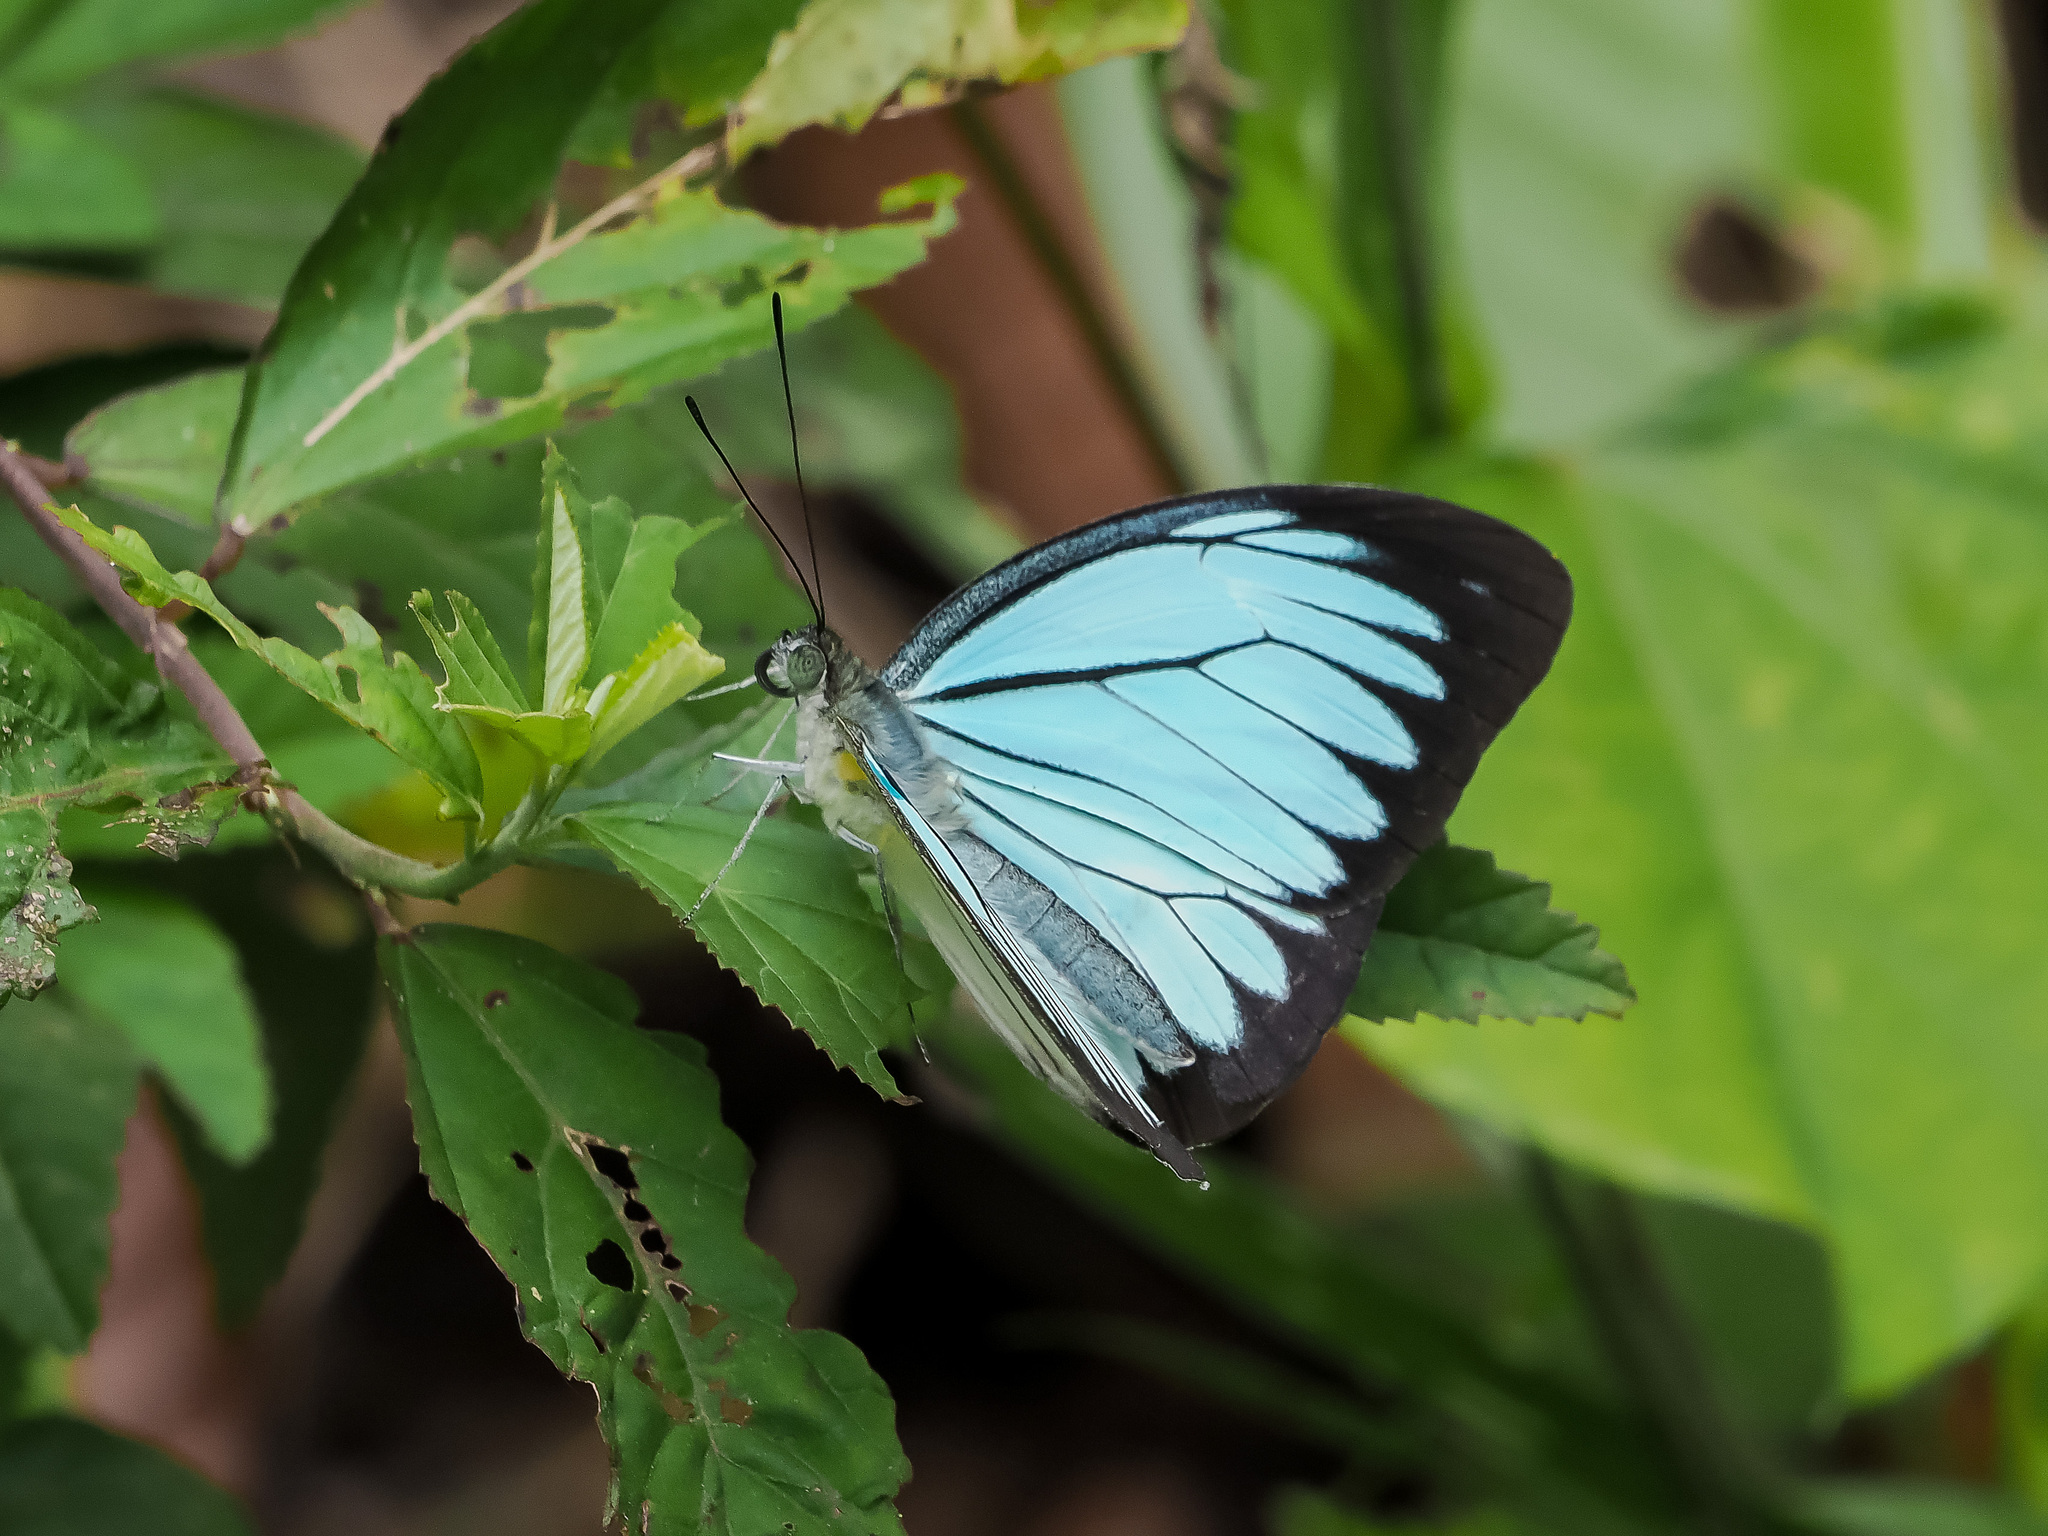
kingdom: Animalia
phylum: Arthropoda
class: Insecta
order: Lepidoptera
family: Pieridae
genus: Pareronia
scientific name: Pareronia valeria
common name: Common wanderer?
